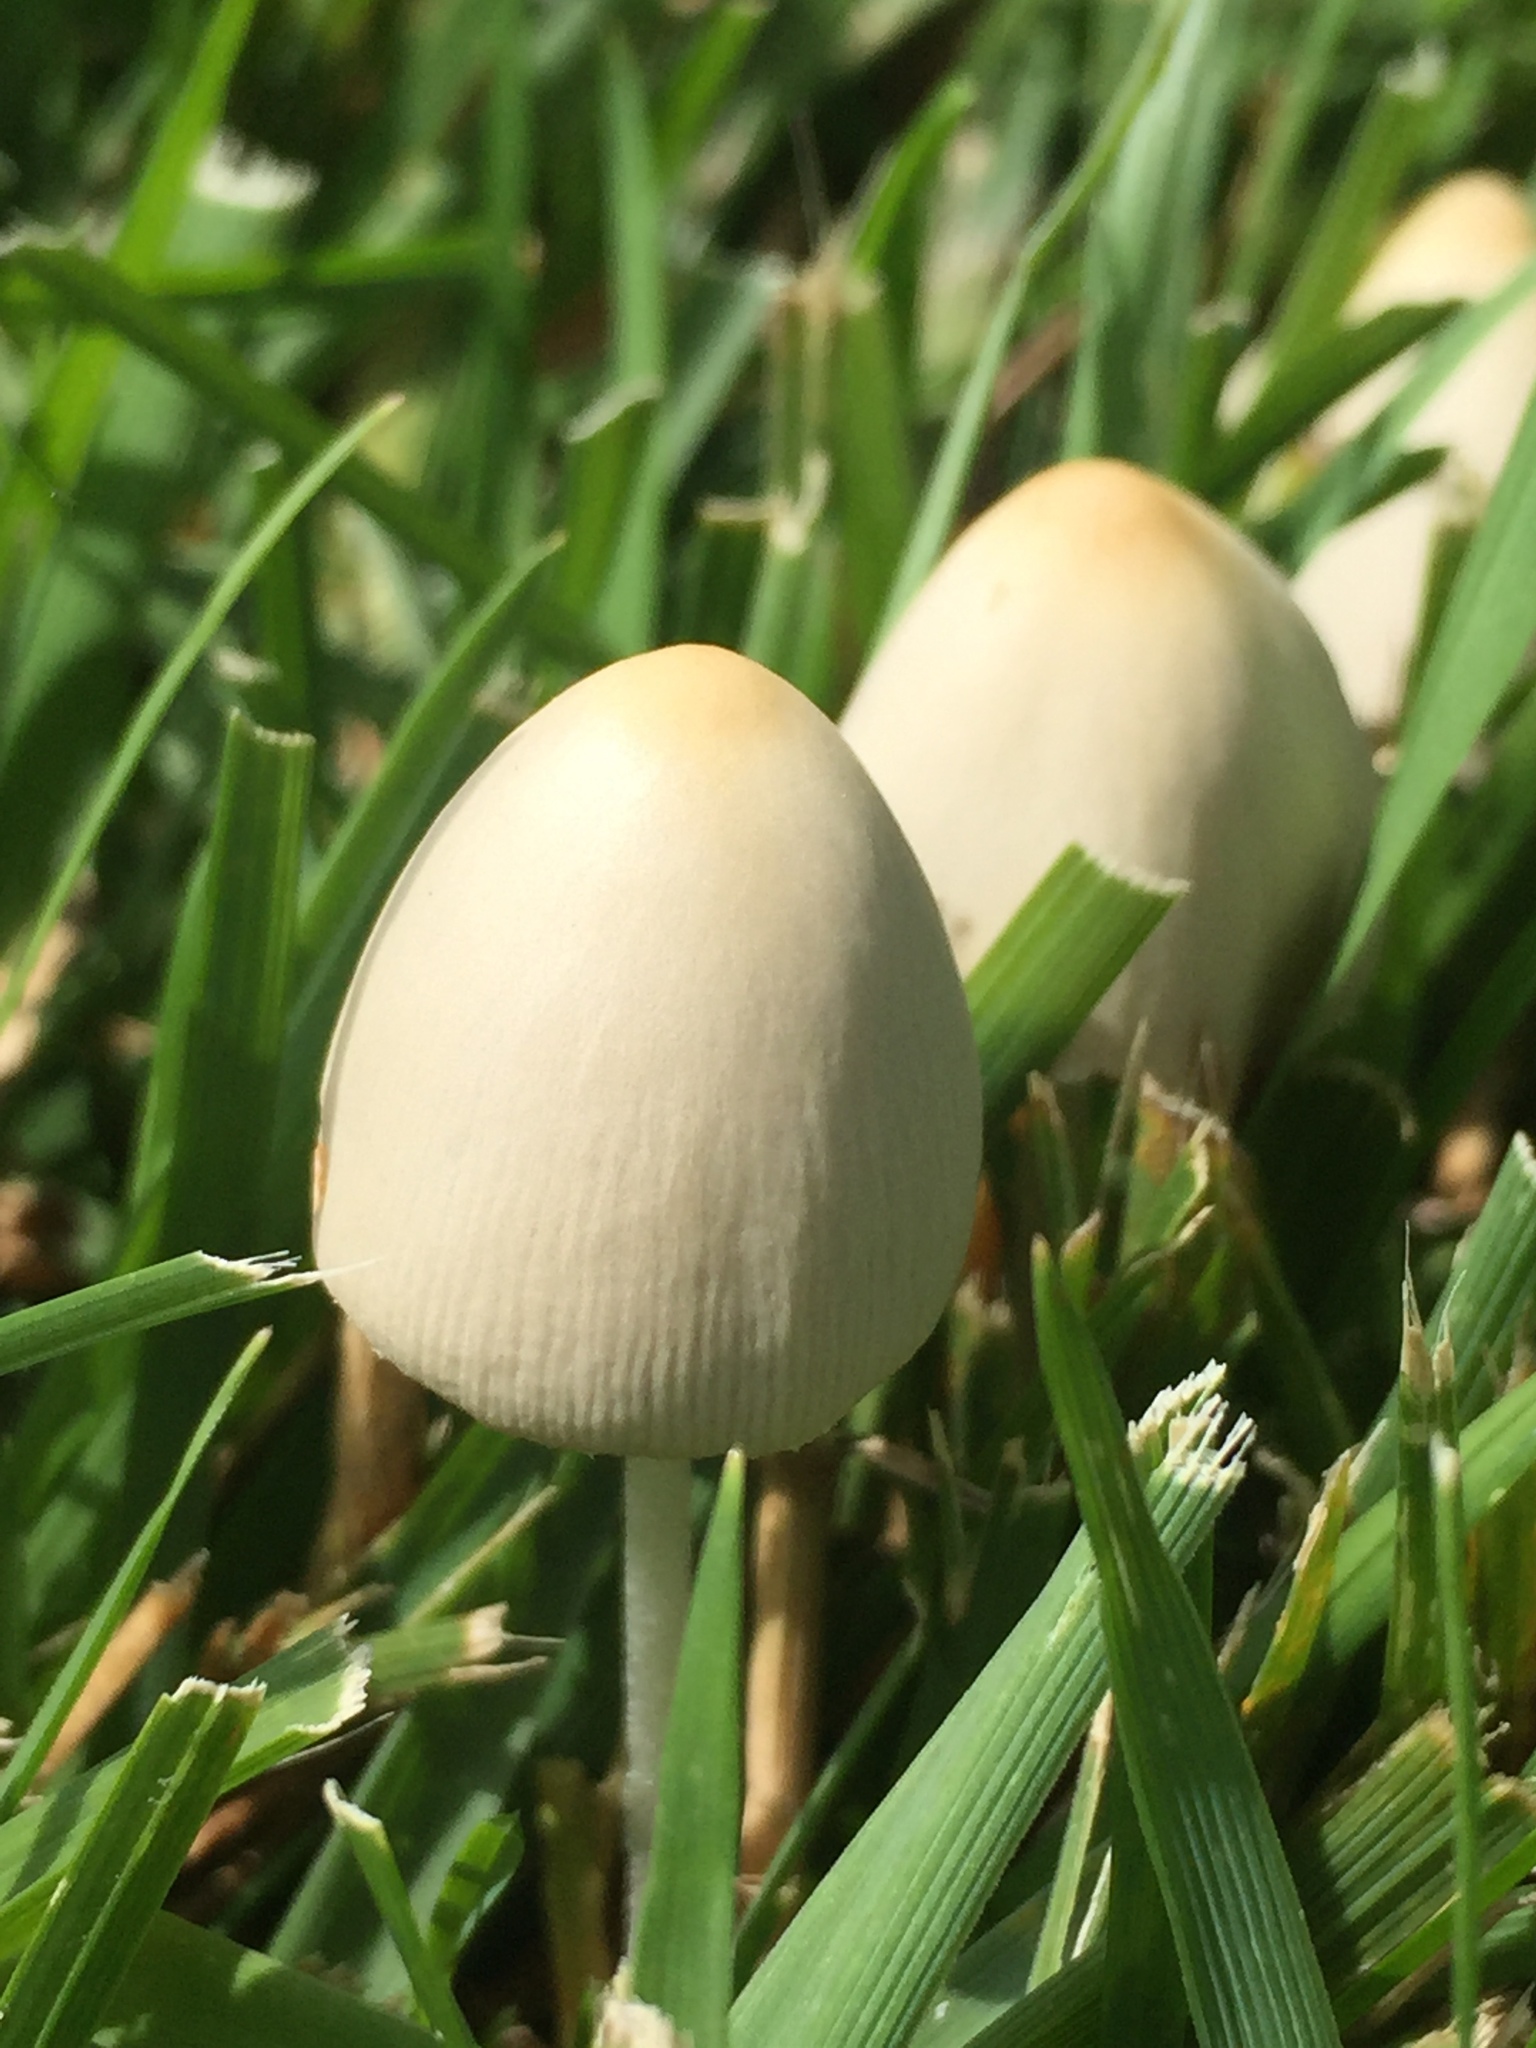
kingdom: Fungi
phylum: Basidiomycota
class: Agaricomycetes
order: Agaricales
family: Bolbitiaceae
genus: Conocybe
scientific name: Conocybe apala
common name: Milky conecap
